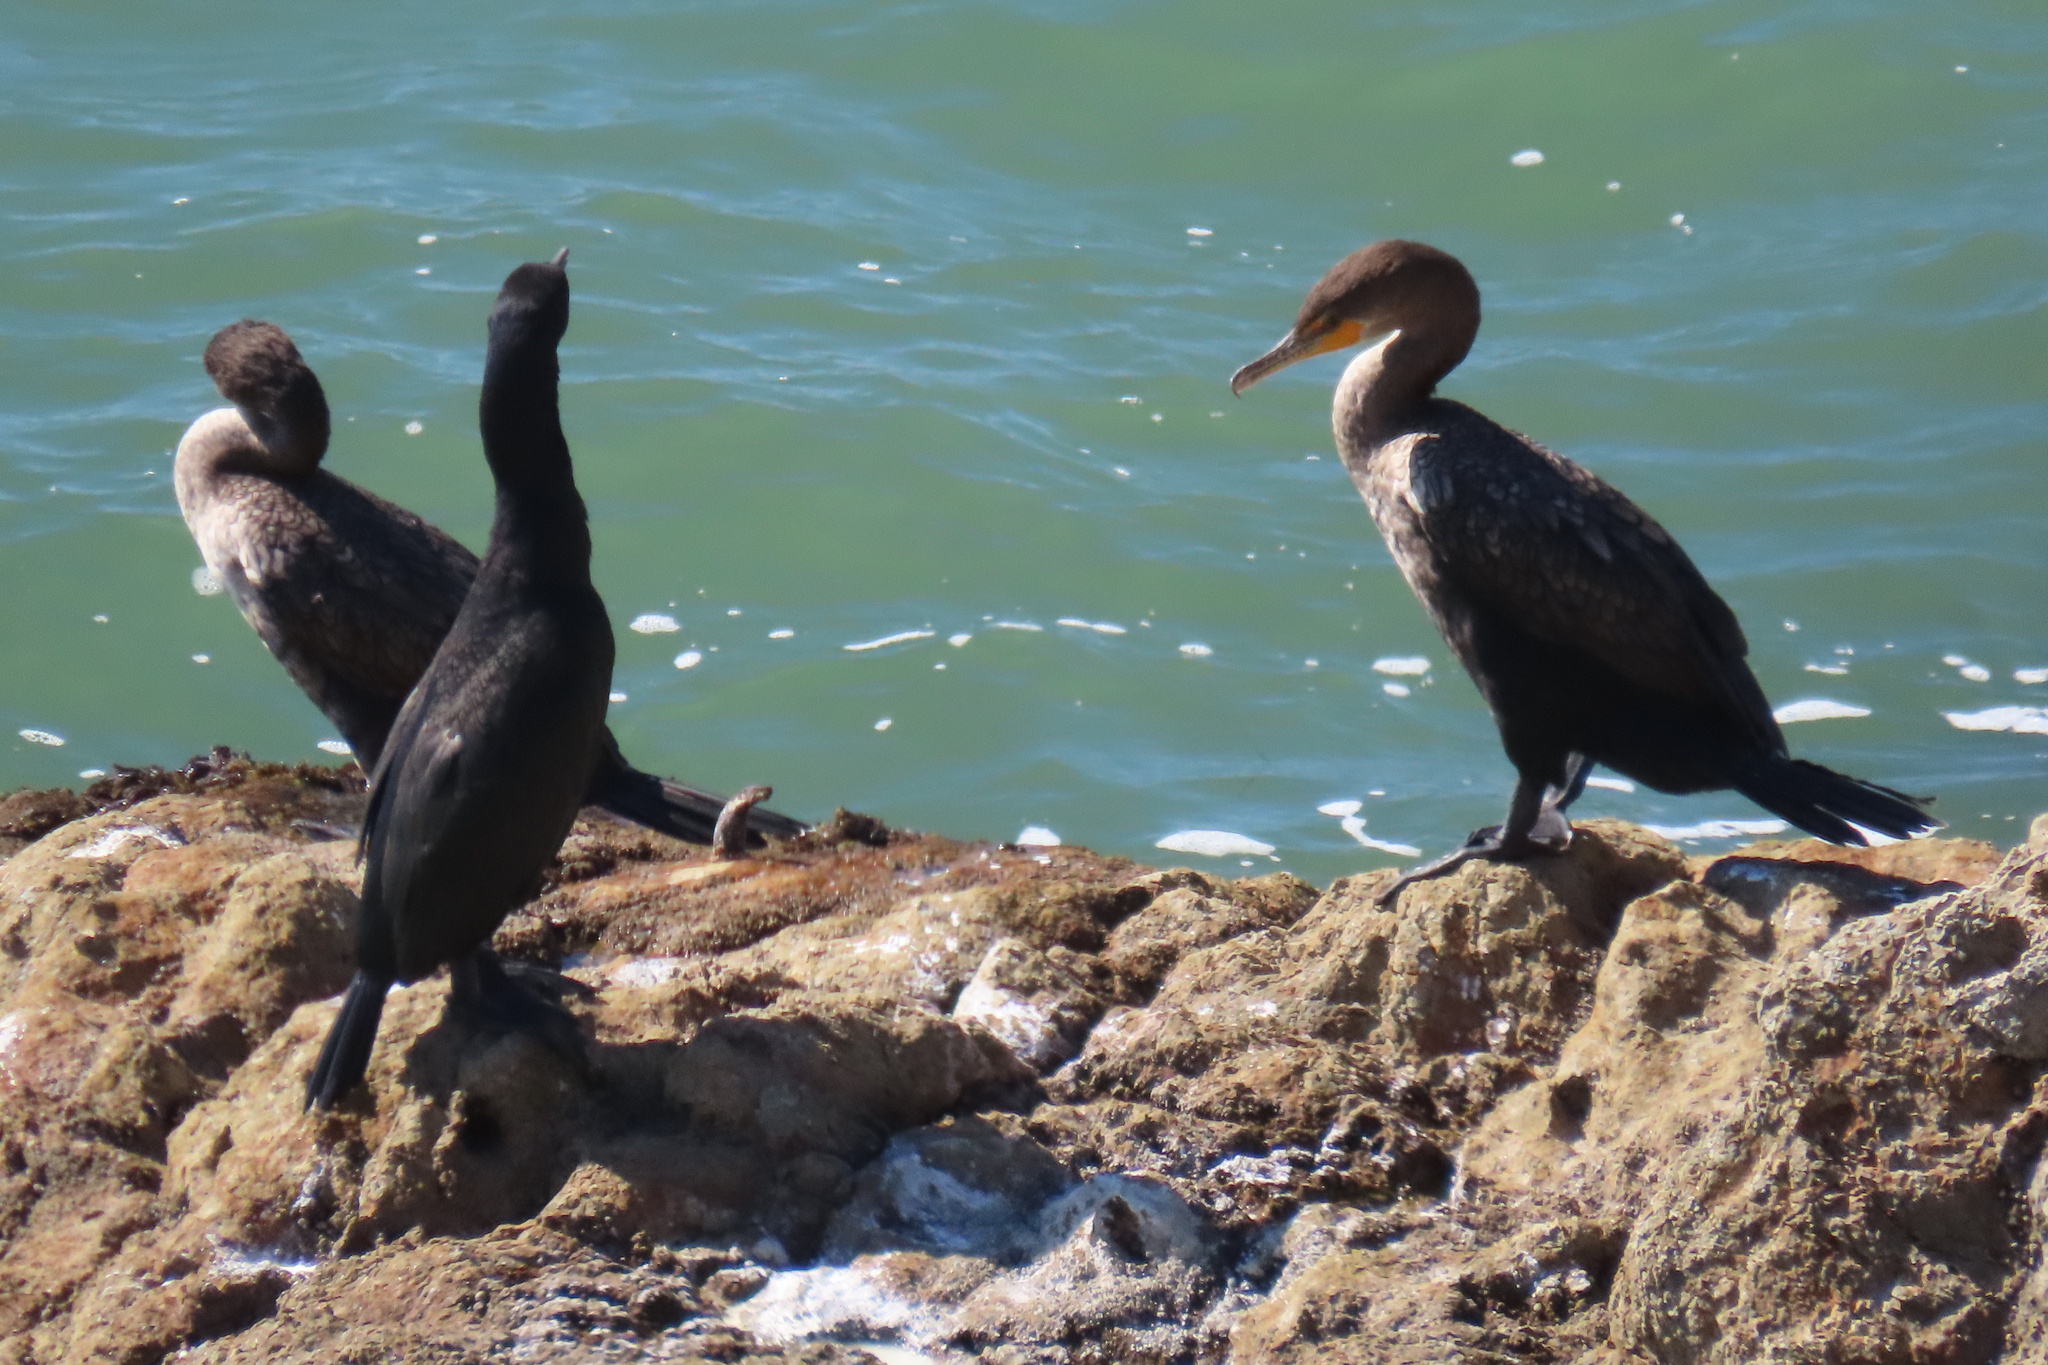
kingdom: Animalia
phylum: Chordata
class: Aves
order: Suliformes
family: Phalacrocoracidae
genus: Phalacrocorax
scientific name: Phalacrocorax auritus
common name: Double-crested cormorant
